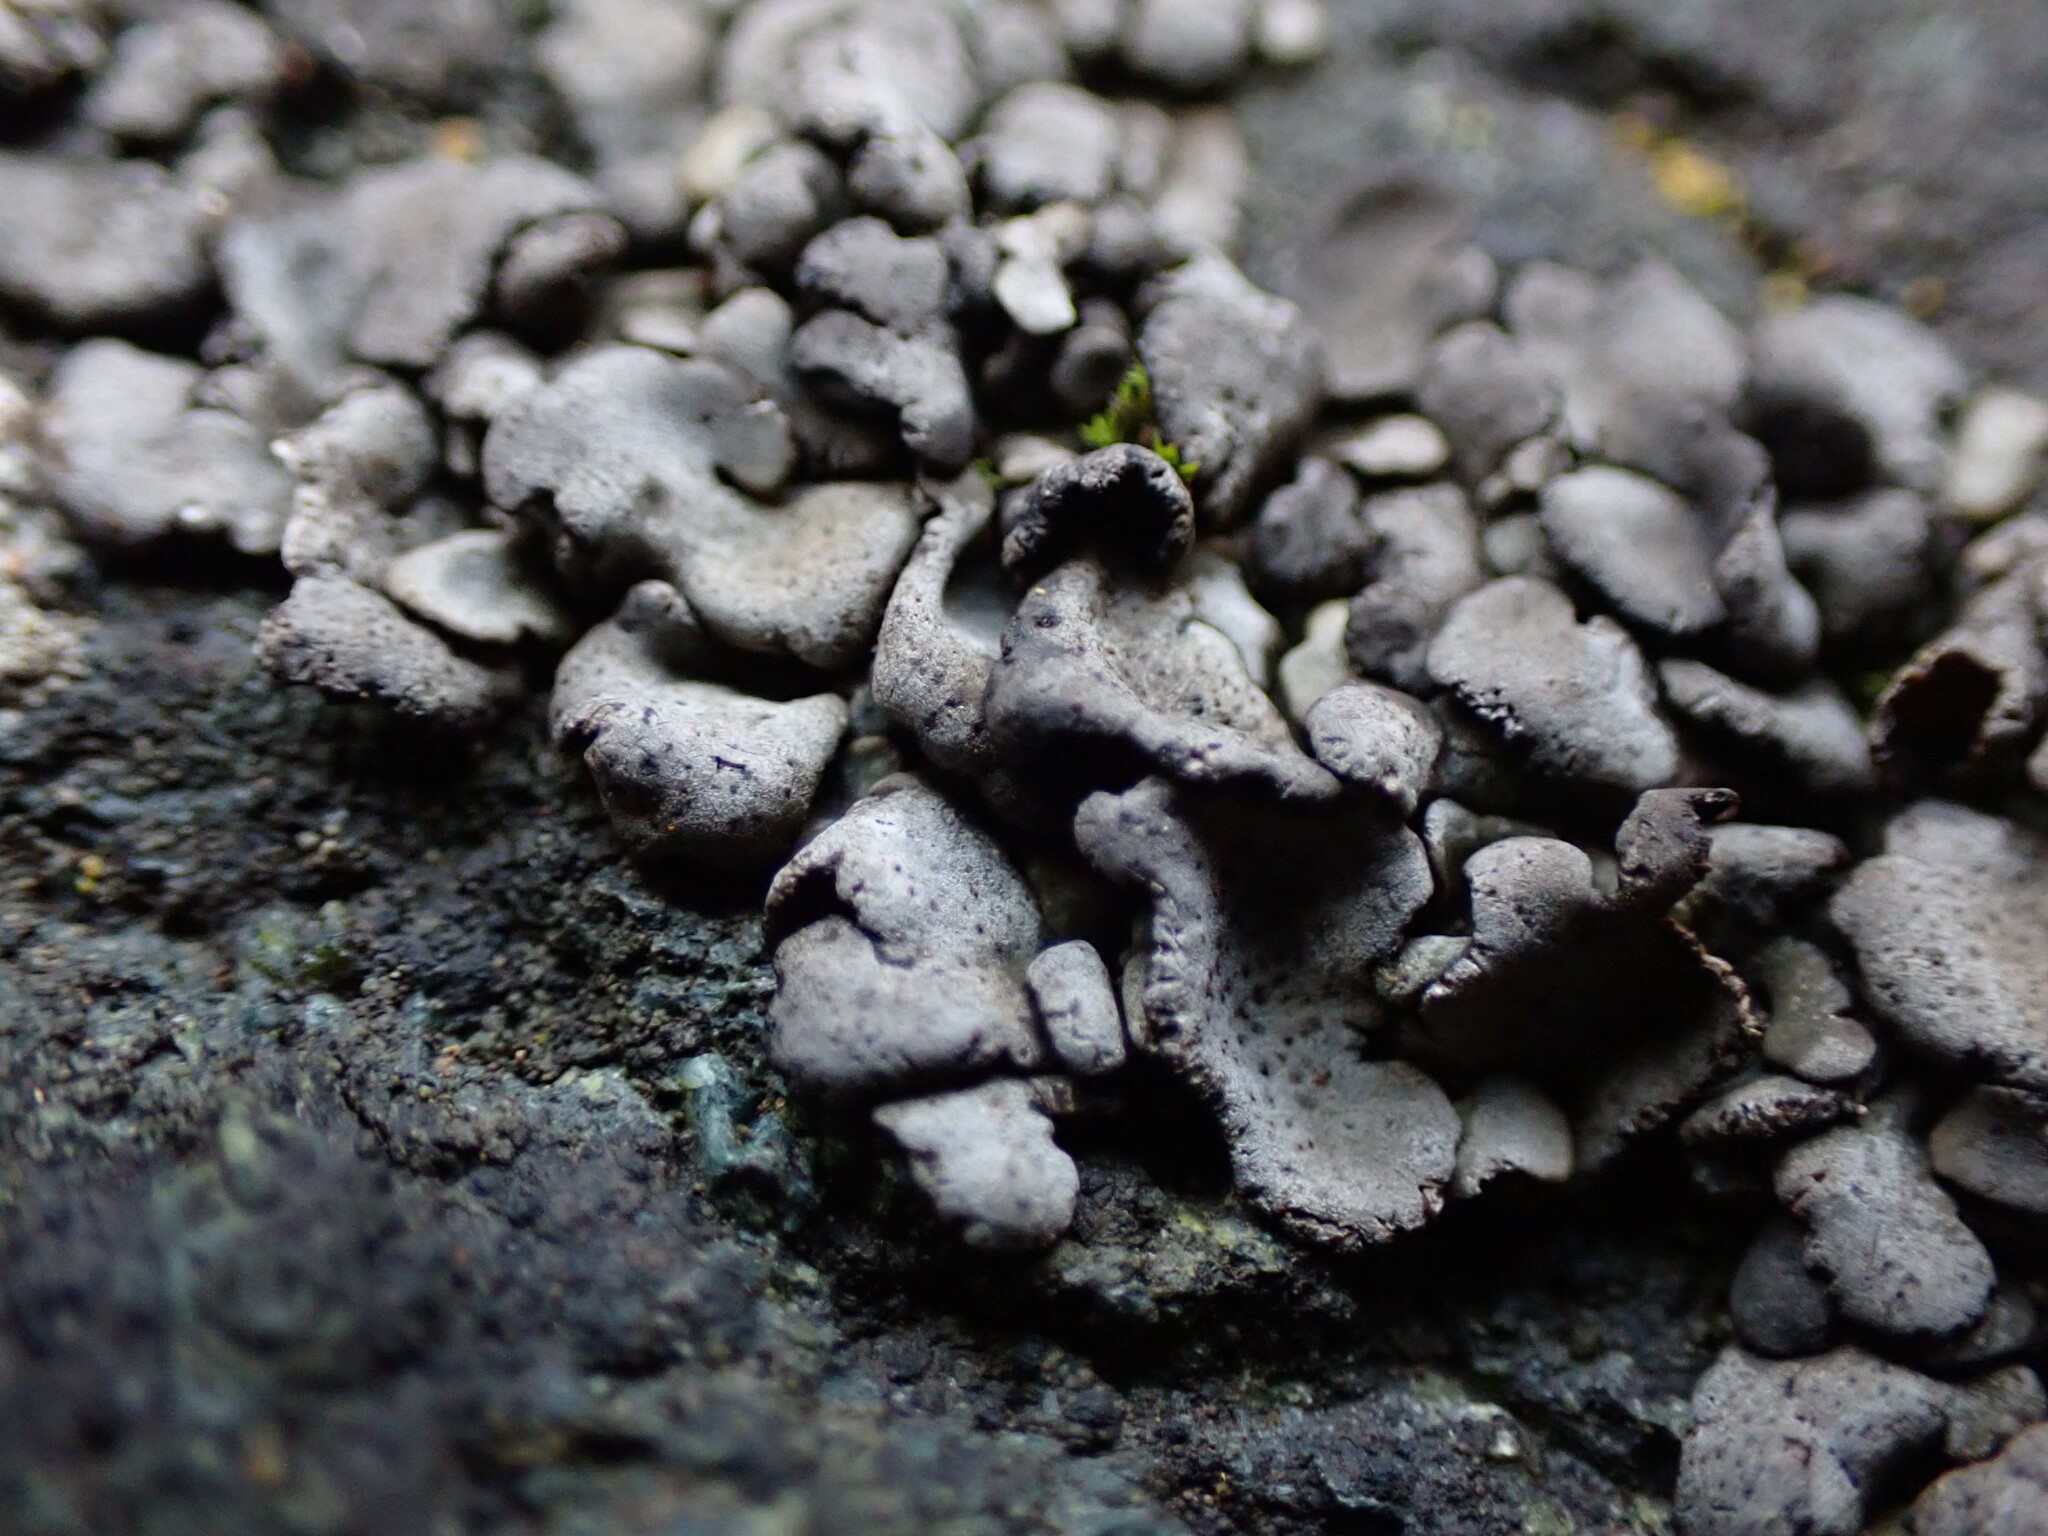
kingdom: Fungi
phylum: Ascomycota
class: Eurotiomycetes
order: Verrucariales
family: Verrucariaceae
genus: Dermatocarpon
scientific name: Dermatocarpon miniatum
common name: Leather lichen
